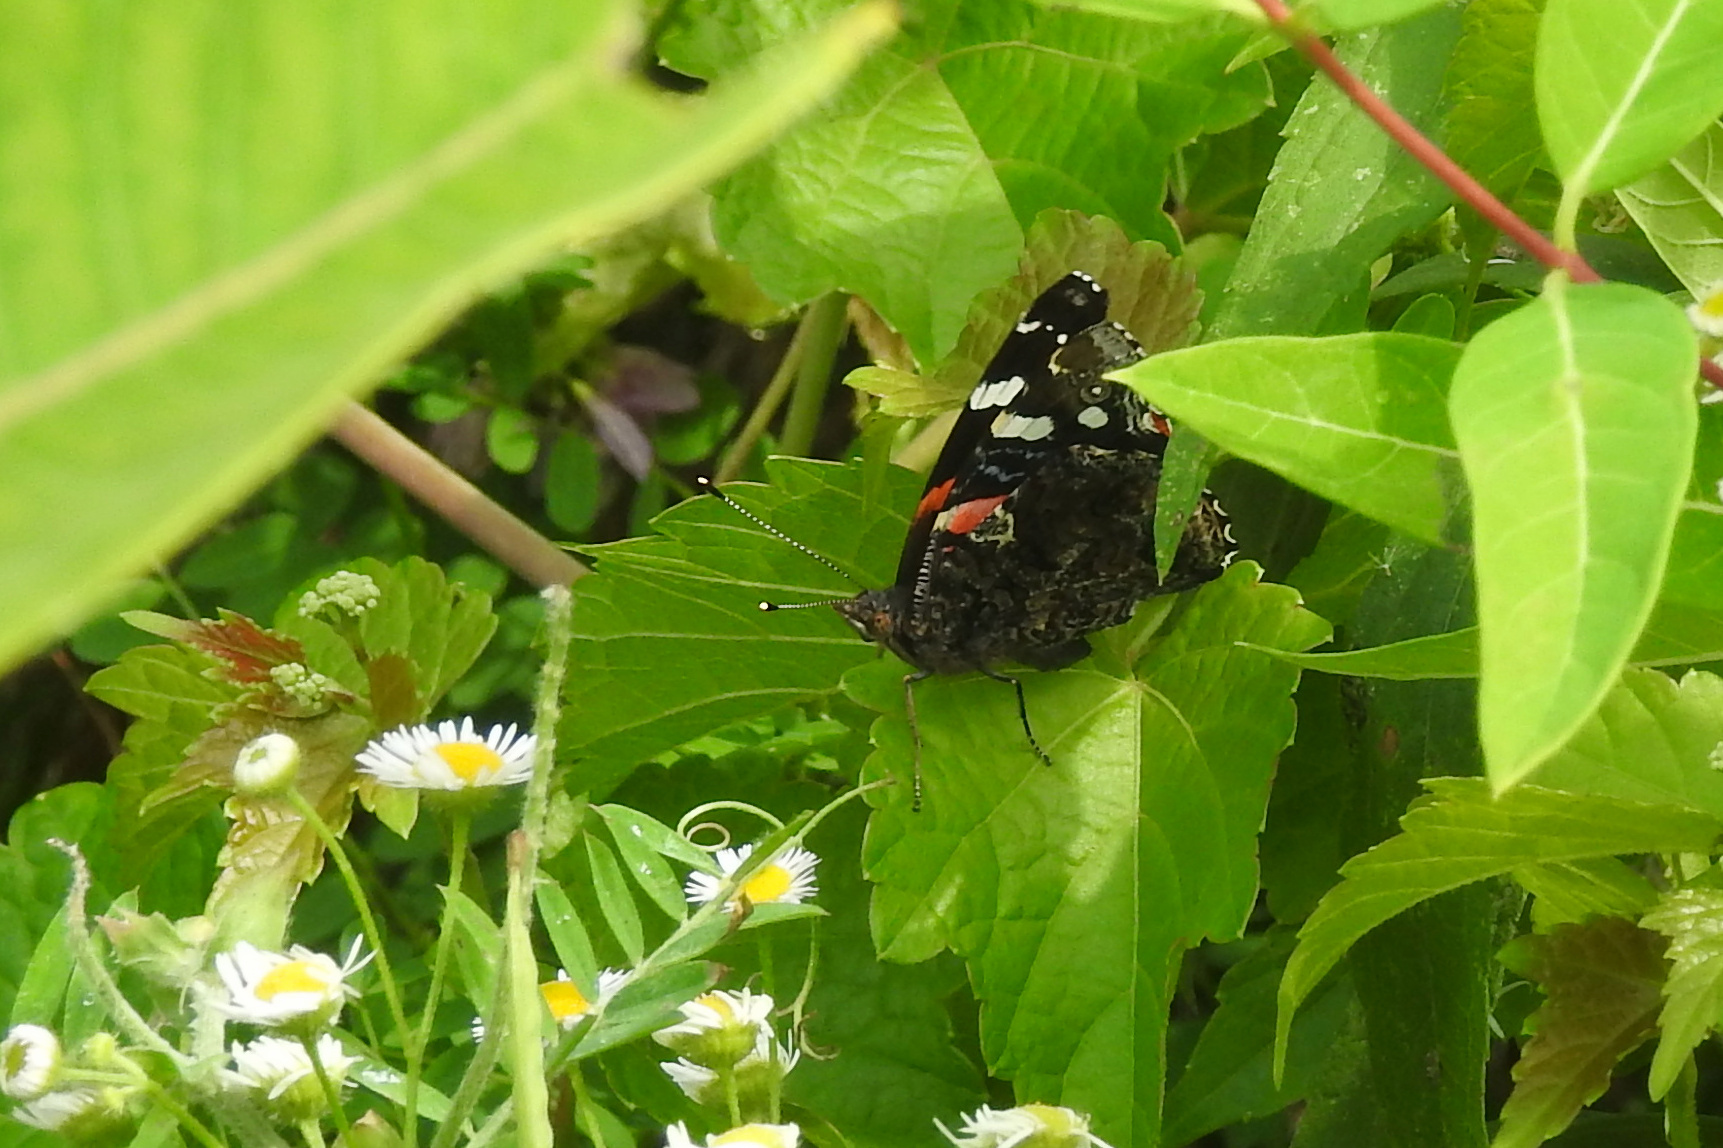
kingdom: Animalia
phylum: Arthropoda
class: Insecta
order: Lepidoptera
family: Nymphalidae
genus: Vanessa
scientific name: Vanessa atalanta
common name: Red admiral
